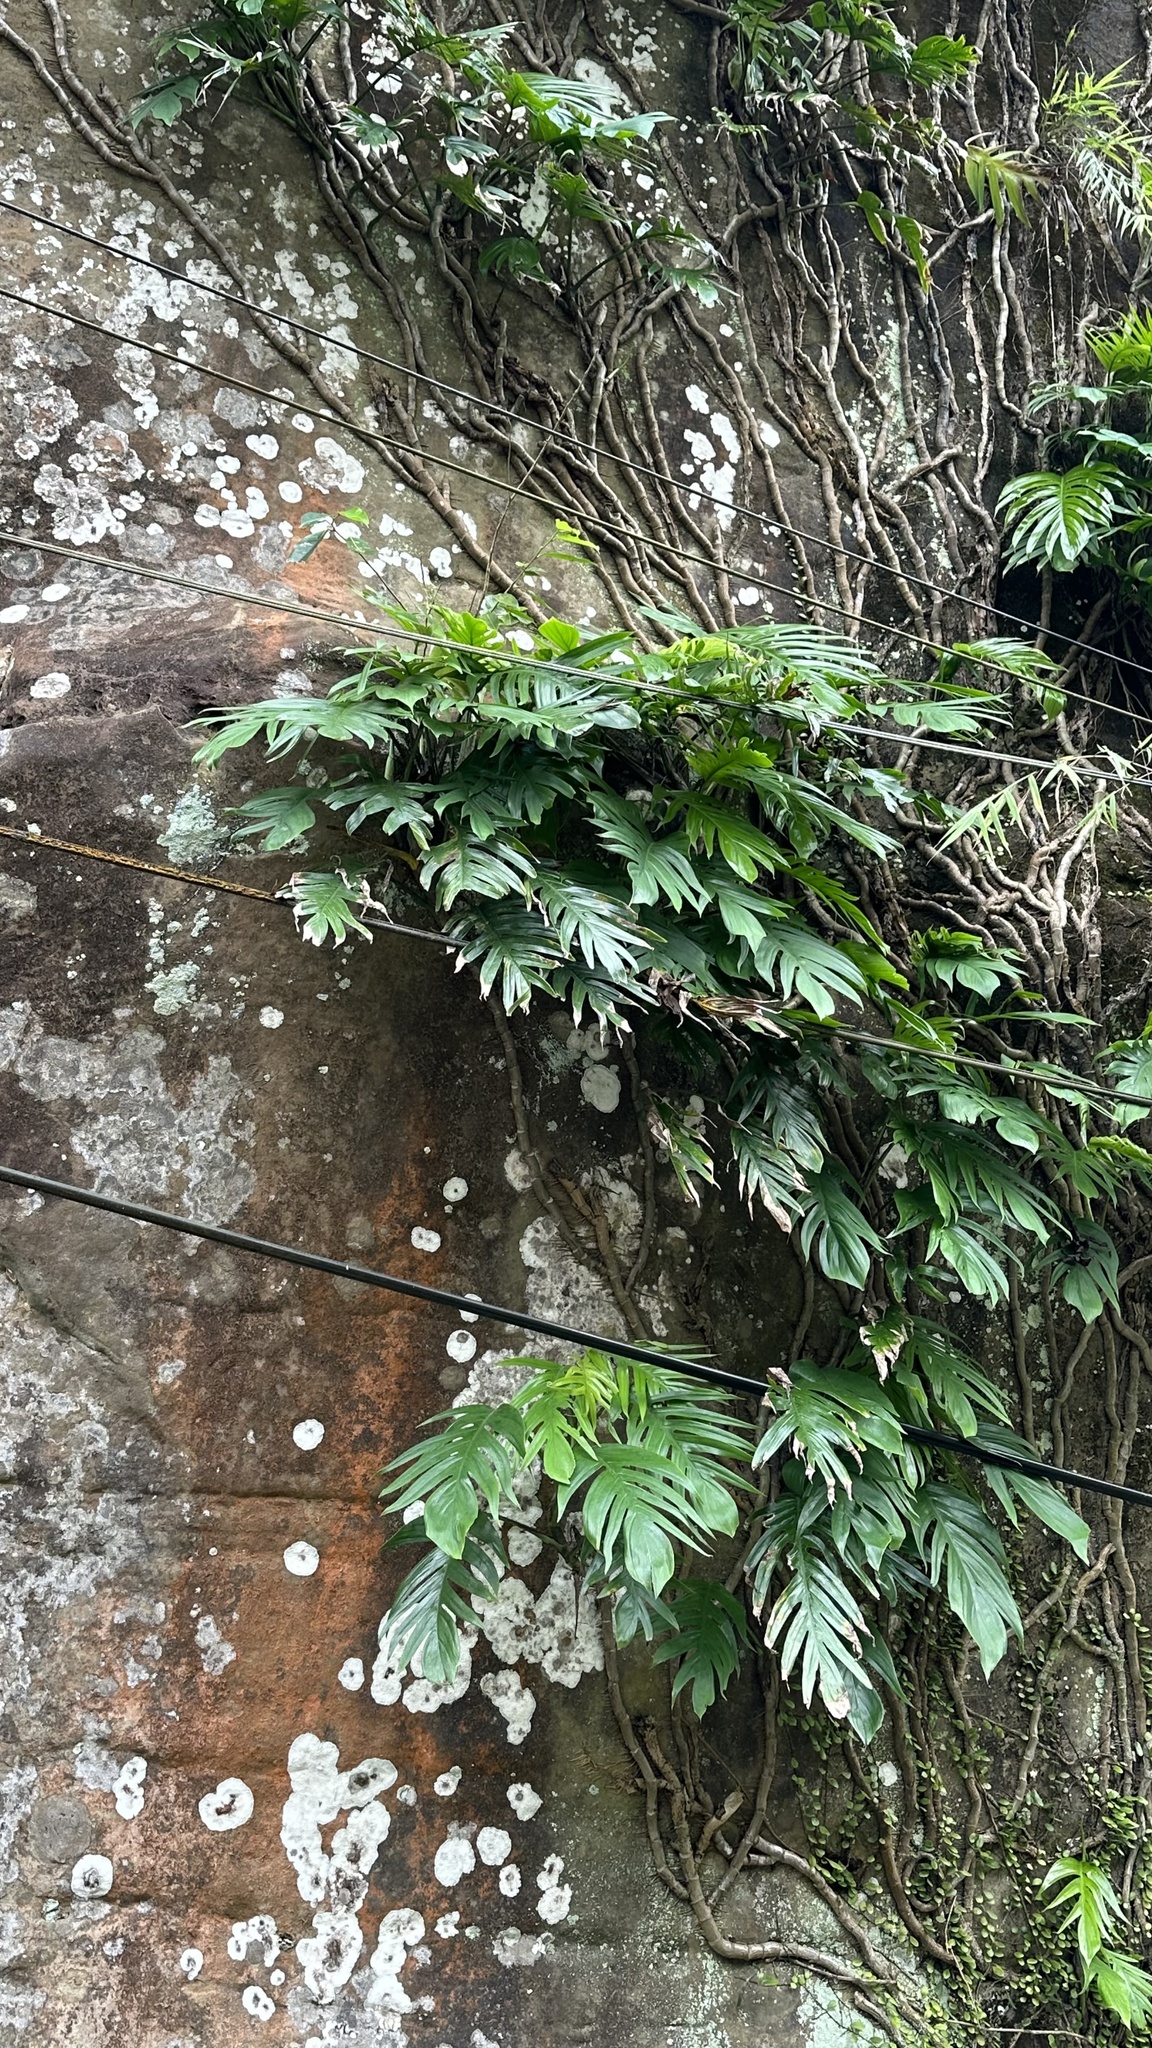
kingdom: Plantae
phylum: Tracheophyta
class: Liliopsida
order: Alismatales
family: Araceae
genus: Epipremnum
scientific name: Epipremnum pinnatum
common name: Centipede tongavine
